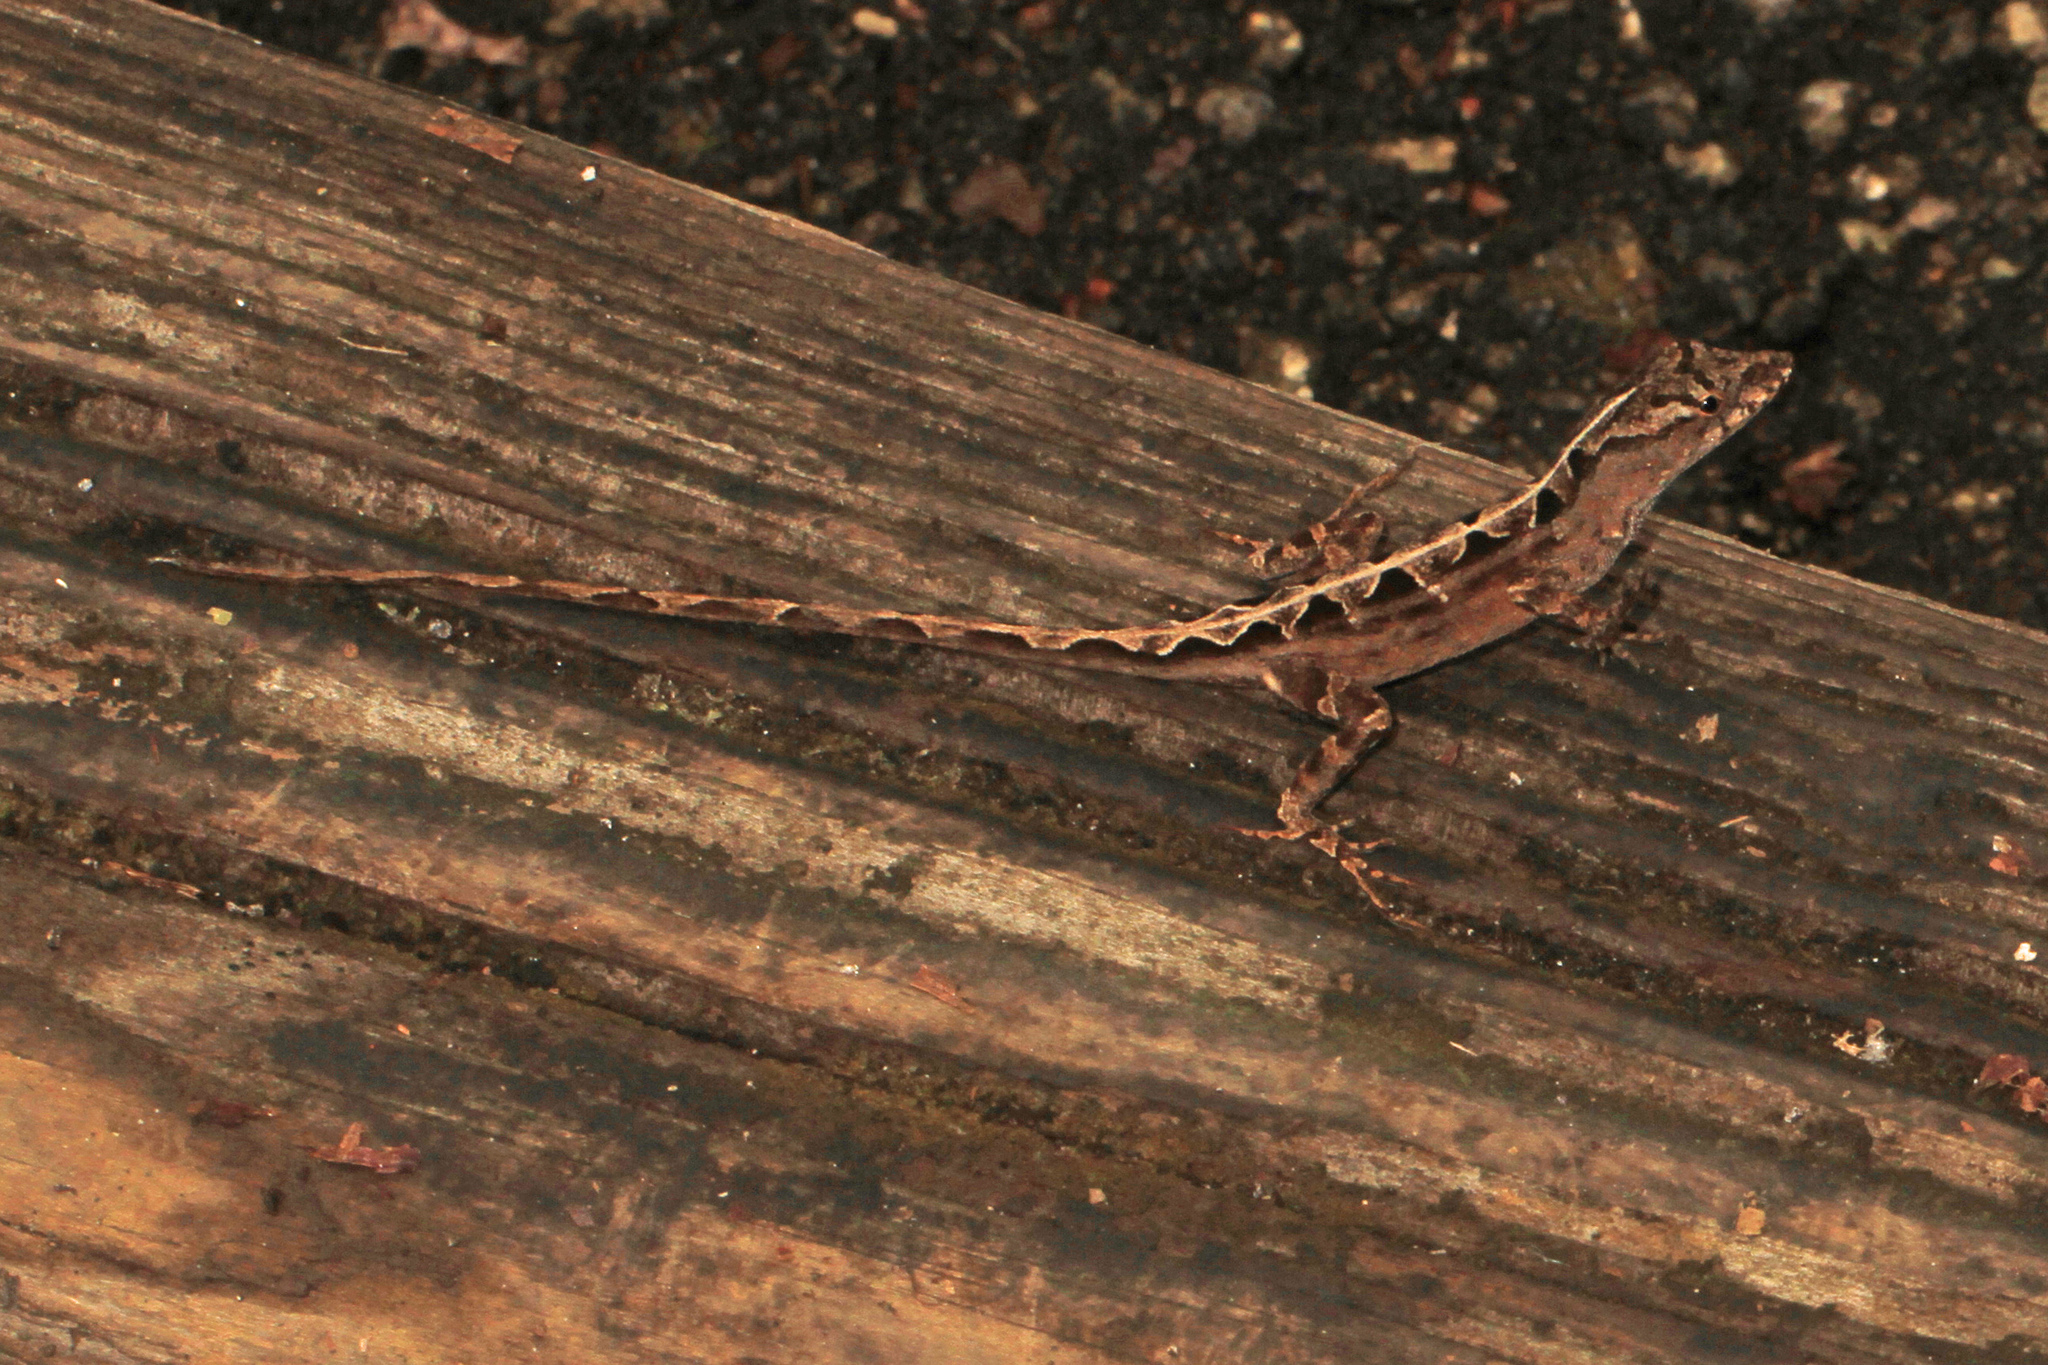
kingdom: Animalia
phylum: Chordata
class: Squamata
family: Dactyloidae
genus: Anolis
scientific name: Anolis sagrei
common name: Brown anole
